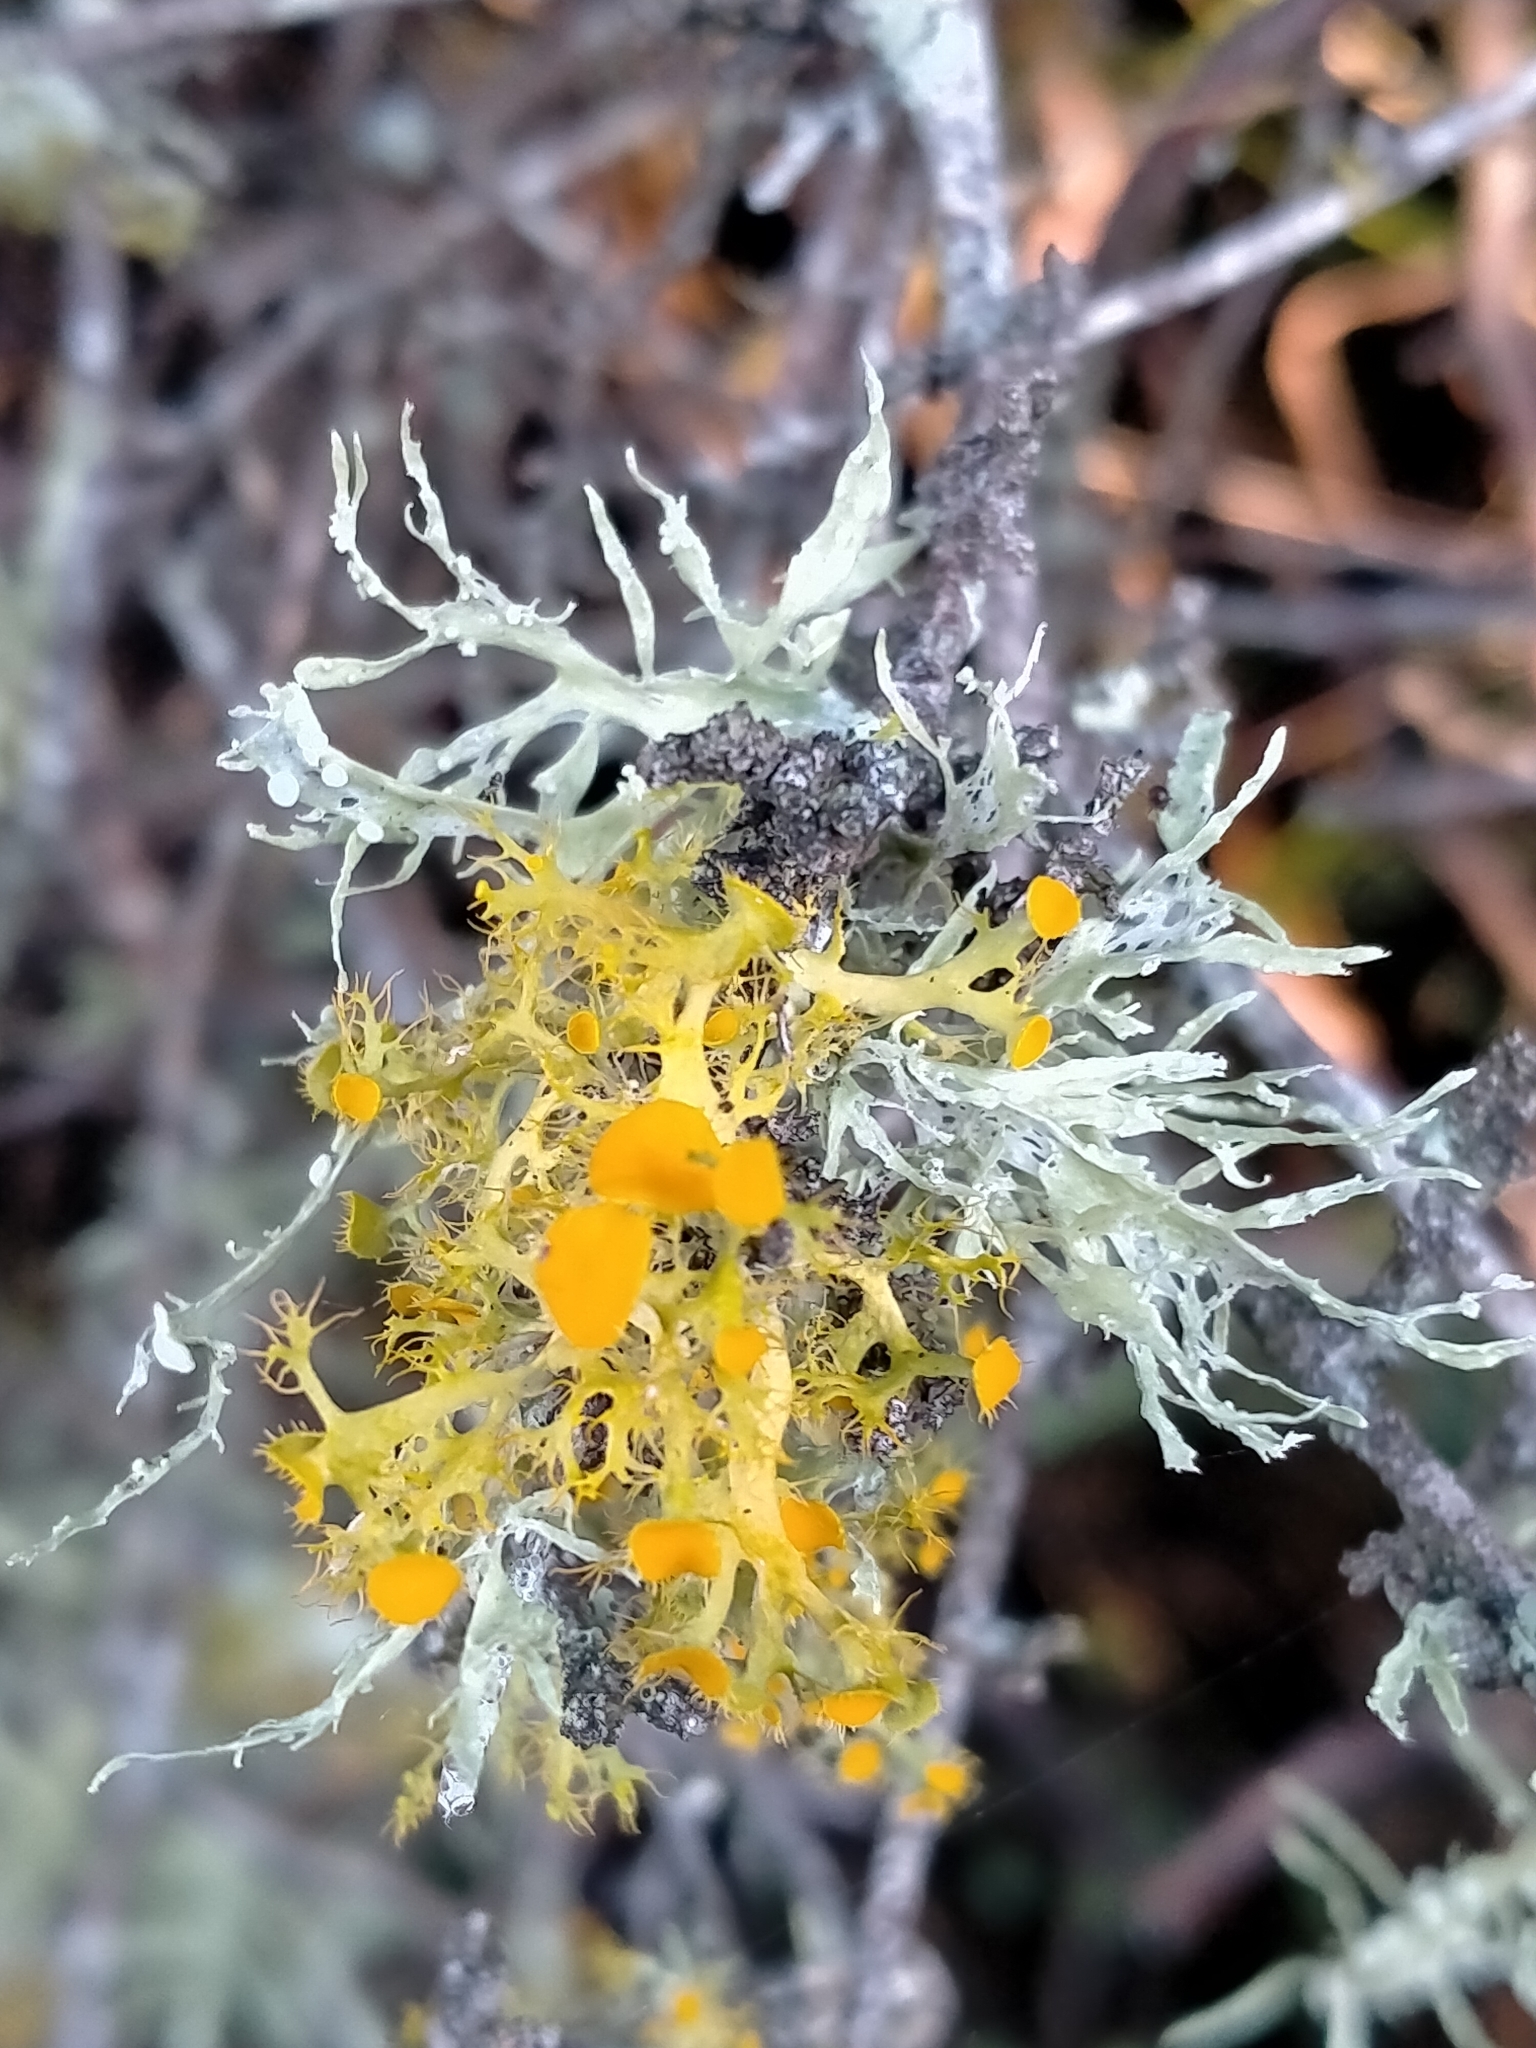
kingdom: Fungi
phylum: Ascomycota
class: Lecanoromycetes
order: Teloschistales
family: Teloschistaceae
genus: Niorma
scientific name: Niorma chrysophthalma
